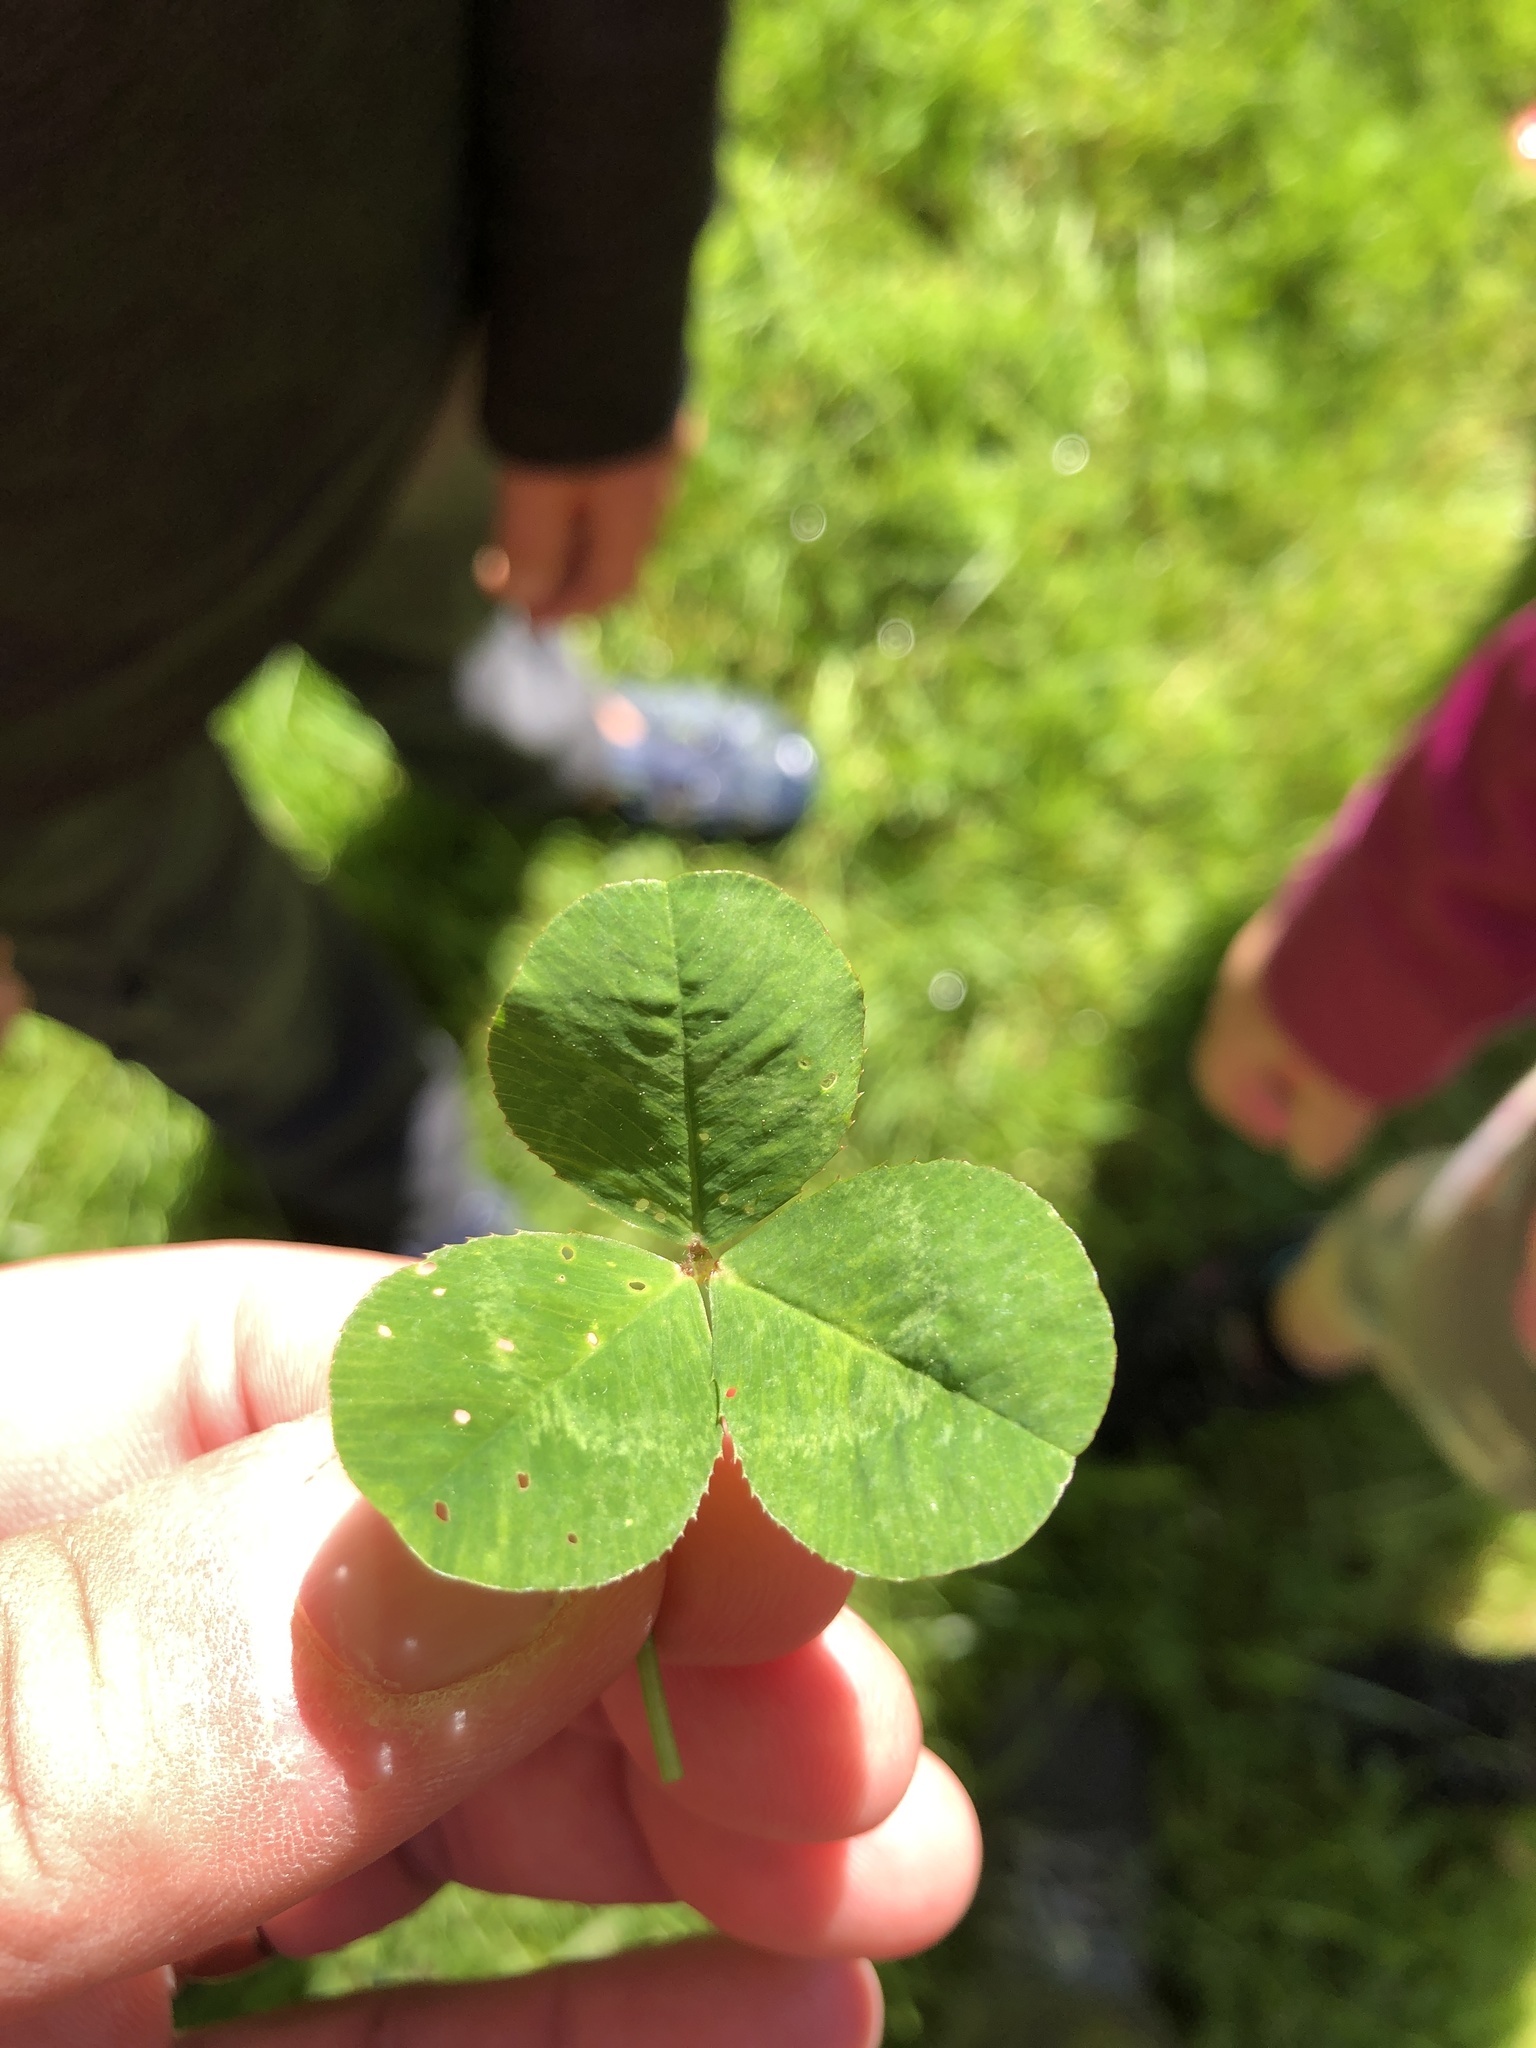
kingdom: Plantae
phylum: Tracheophyta
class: Magnoliopsida
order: Fabales
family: Fabaceae
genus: Trifolium
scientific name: Trifolium repens
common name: White clover
